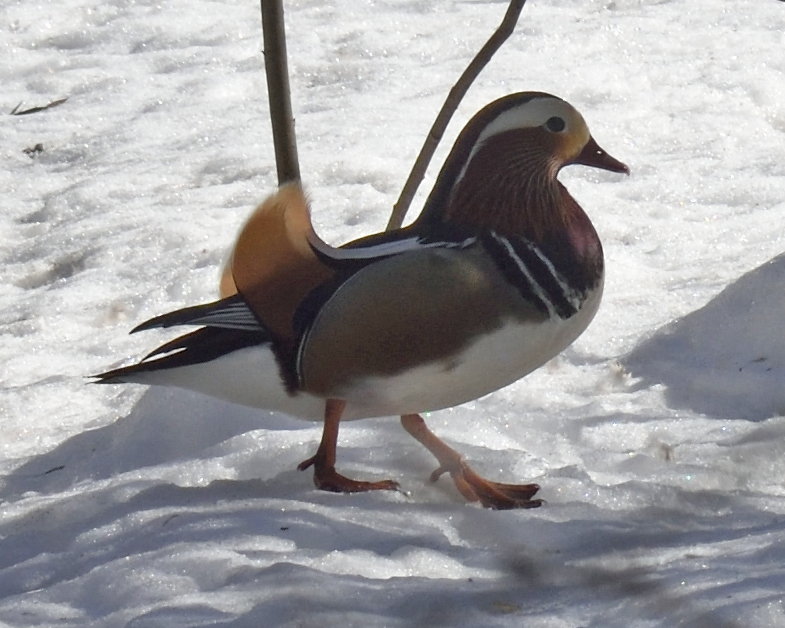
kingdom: Animalia
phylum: Chordata
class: Aves
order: Anseriformes
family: Anatidae
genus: Aix
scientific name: Aix galericulata
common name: Mandarin duck
